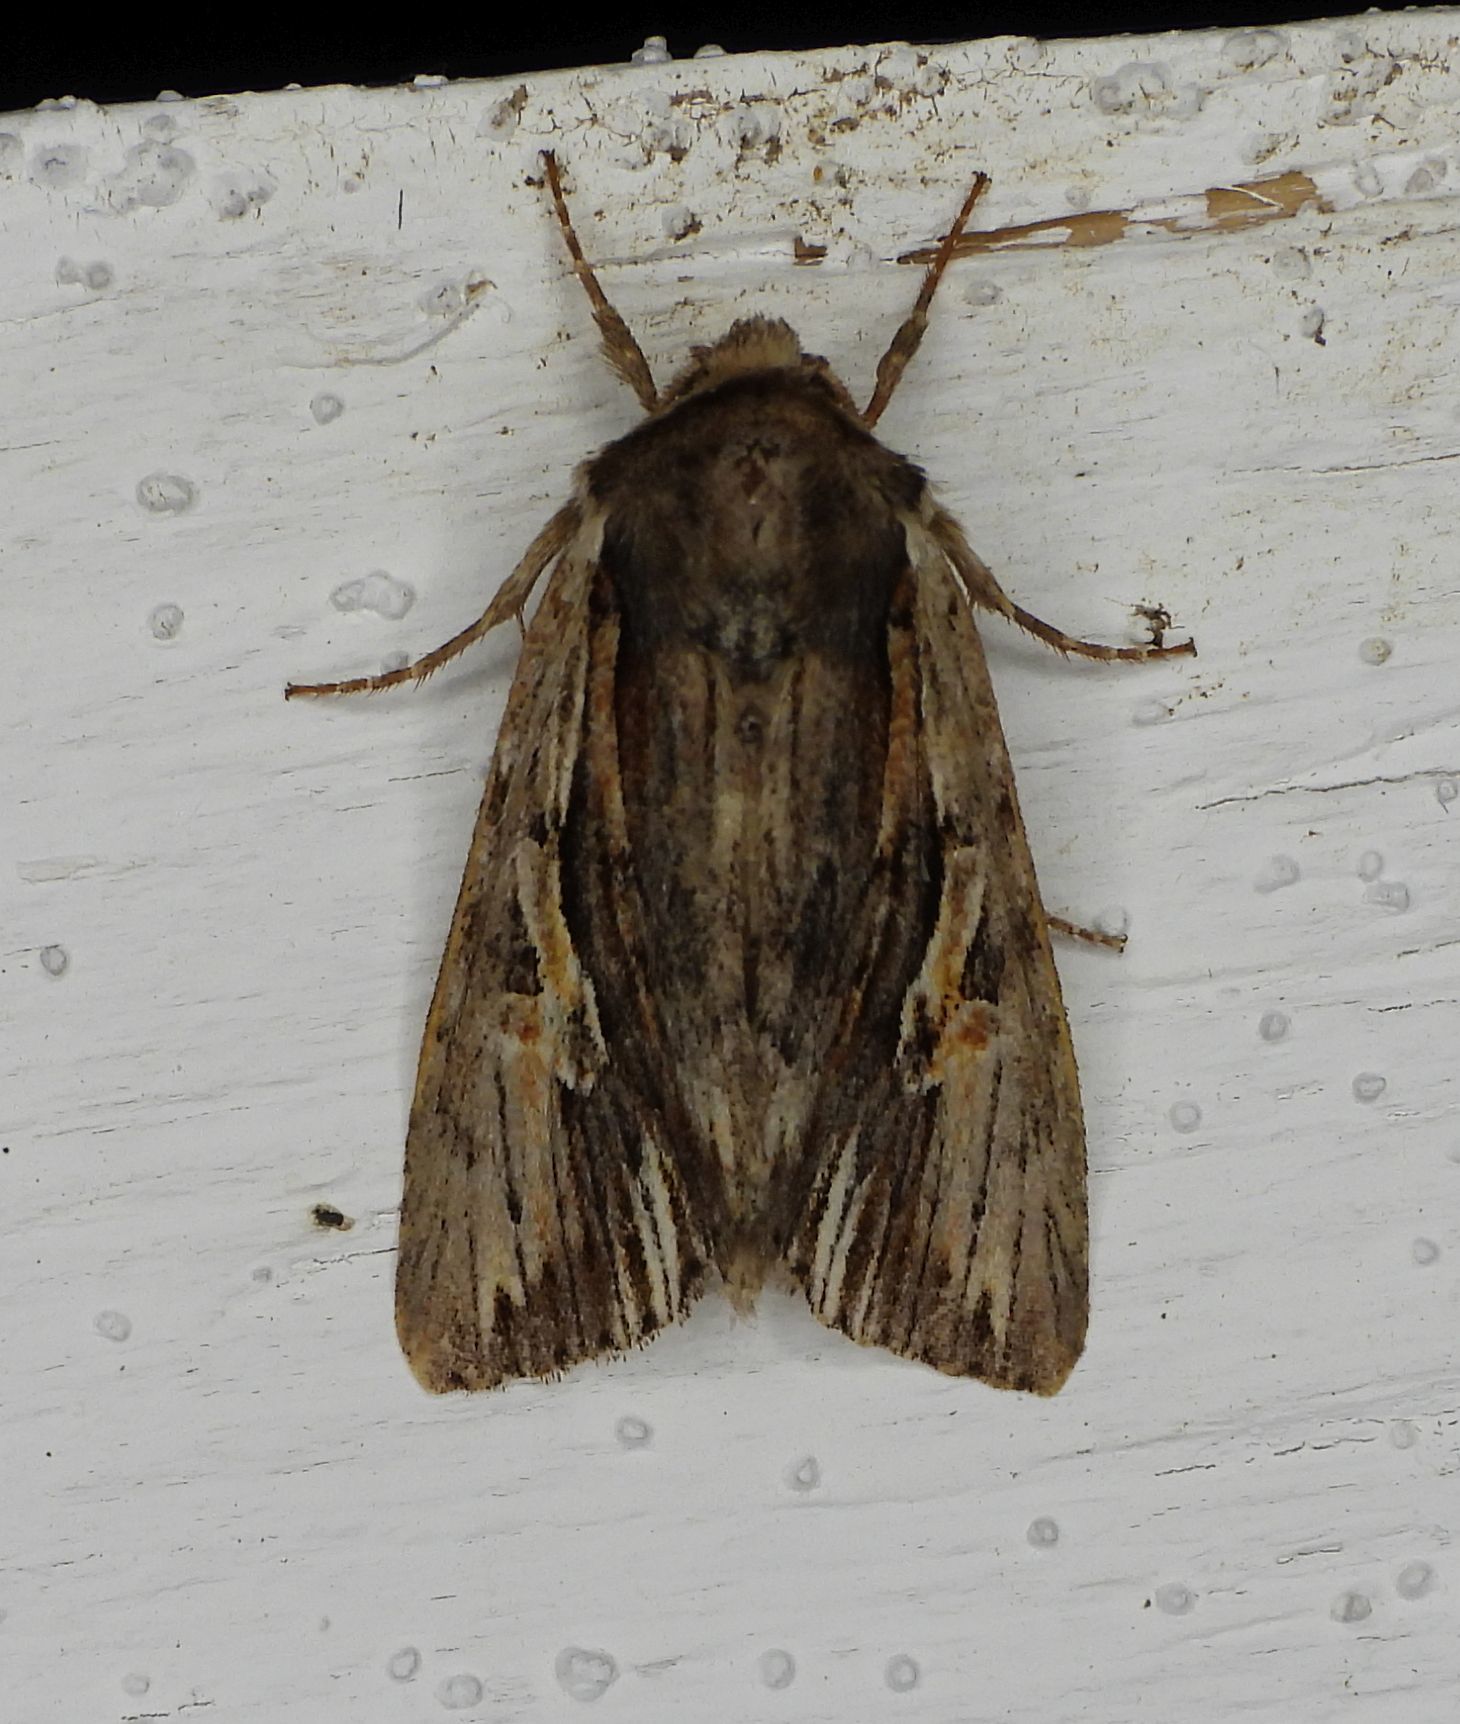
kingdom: Animalia
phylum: Arthropoda
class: Insecta
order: Lepidoptera
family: Noctuidae
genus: Achatia
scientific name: Achatia evicta
